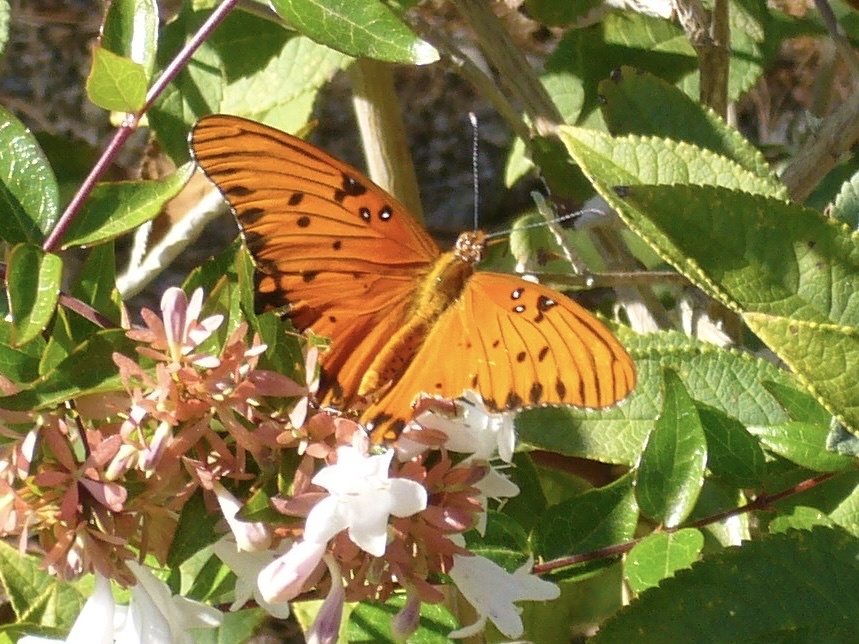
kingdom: Animalia
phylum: Arthropoda
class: Insecta
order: Lepidoptera
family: Nymphalidae
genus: Dione
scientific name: Dione vanillae
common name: Gulf fritillary
